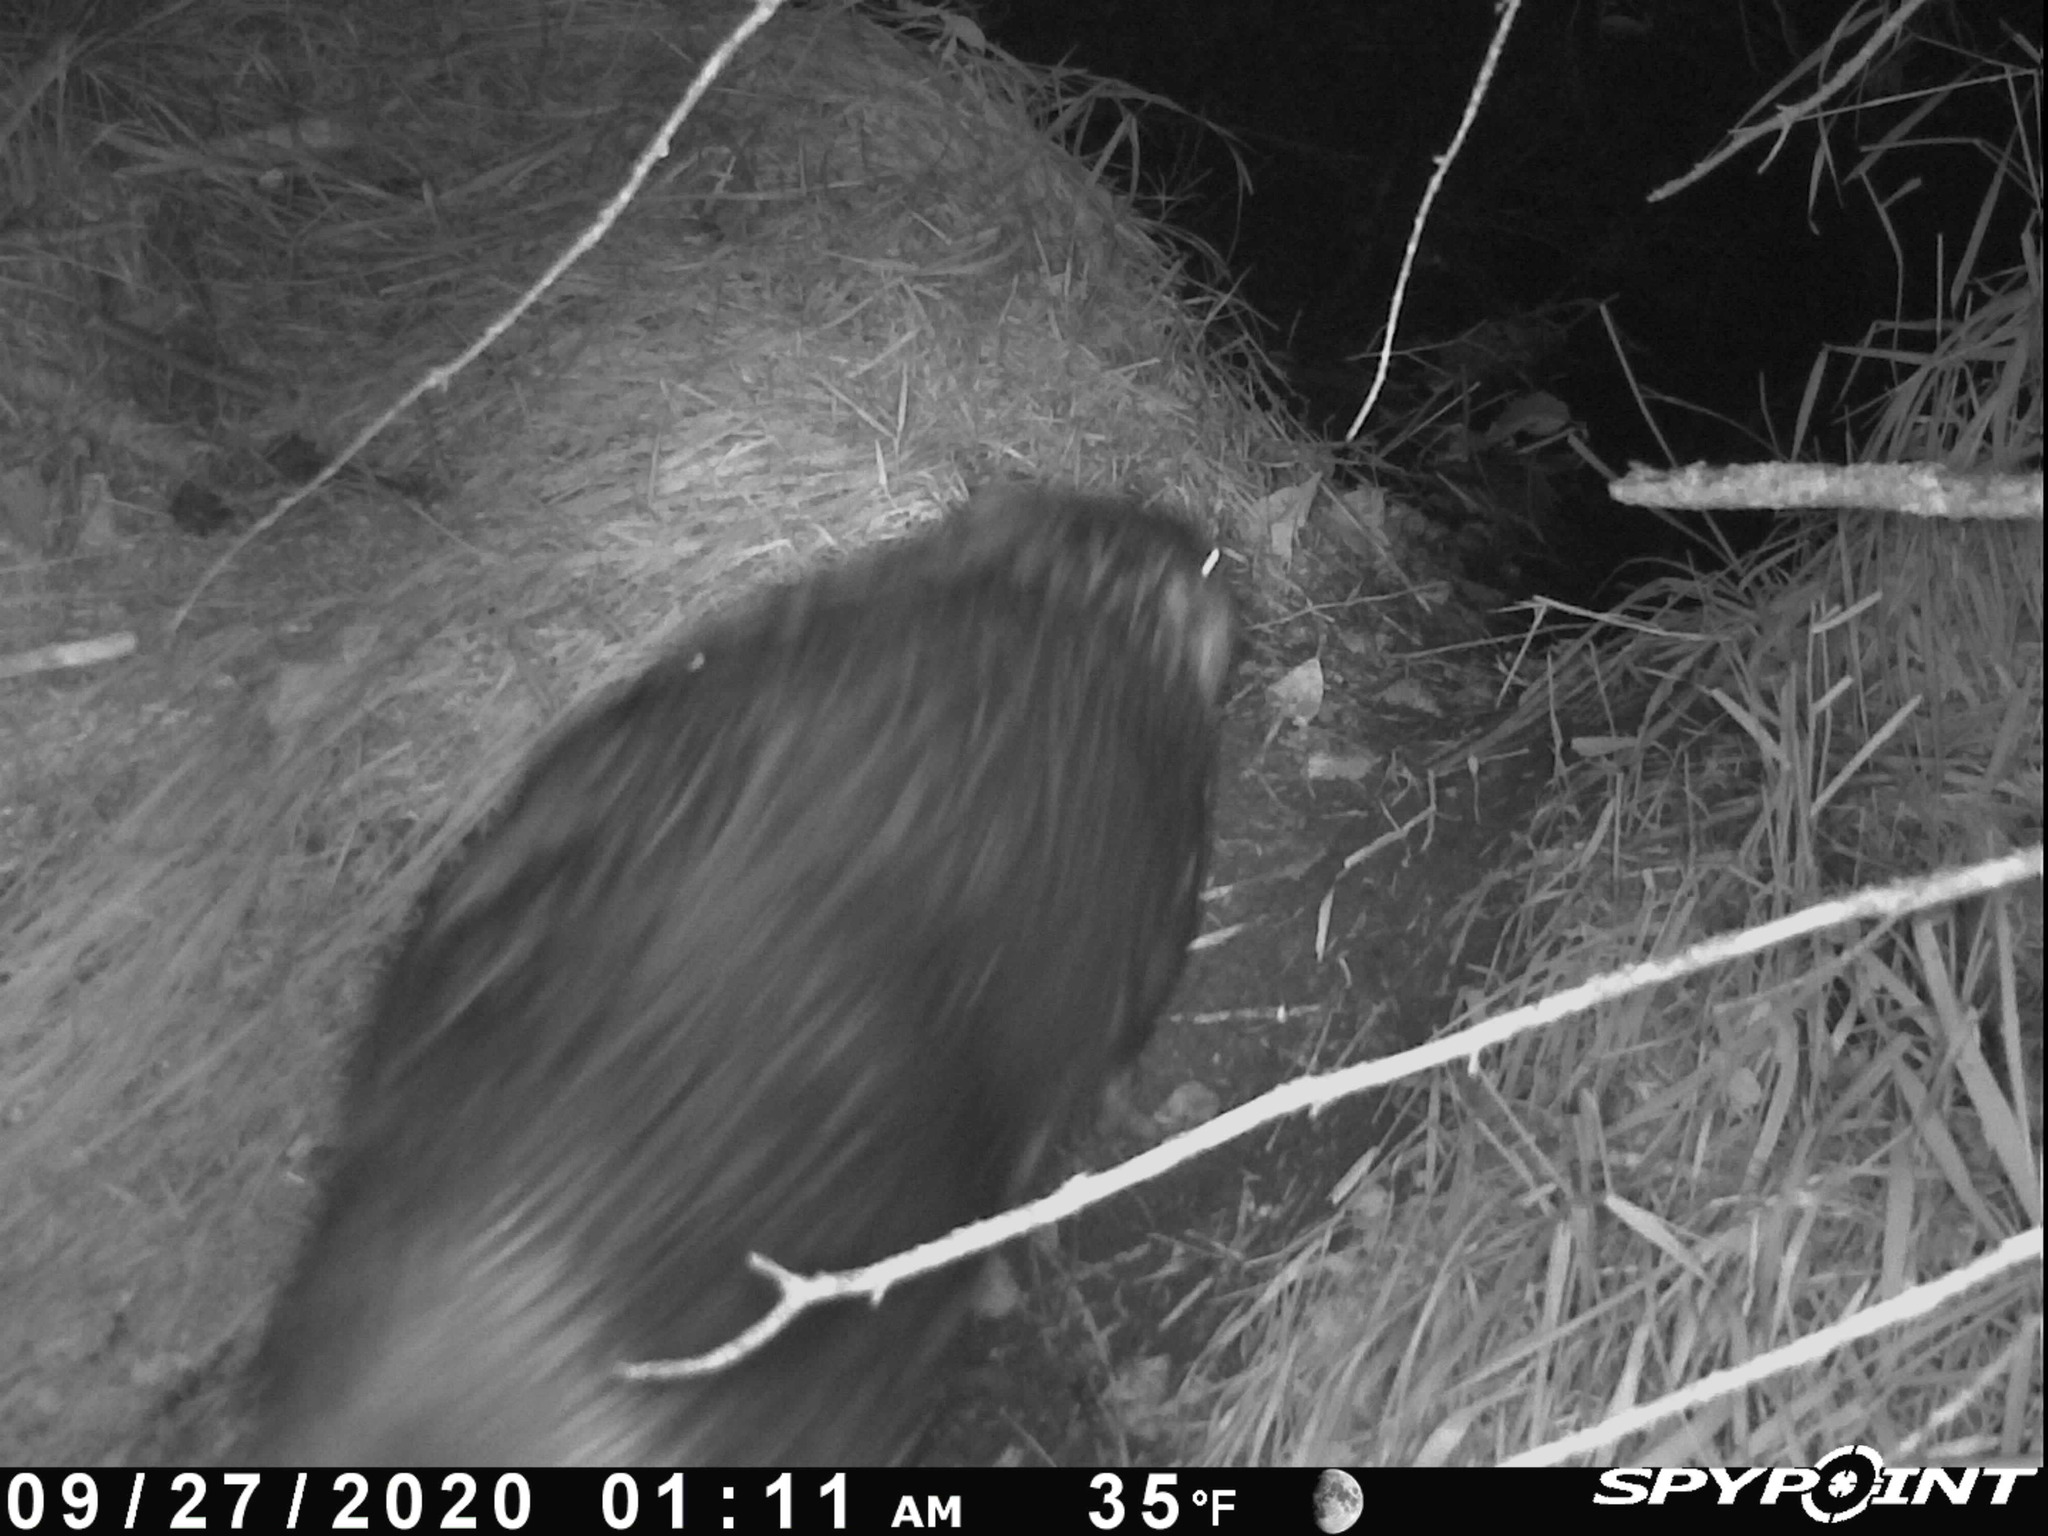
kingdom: Animalia
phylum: Chordata
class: Mammalia
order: Rodentia
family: Castoridae
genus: Castor
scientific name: Castor canadensis
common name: American beaver
